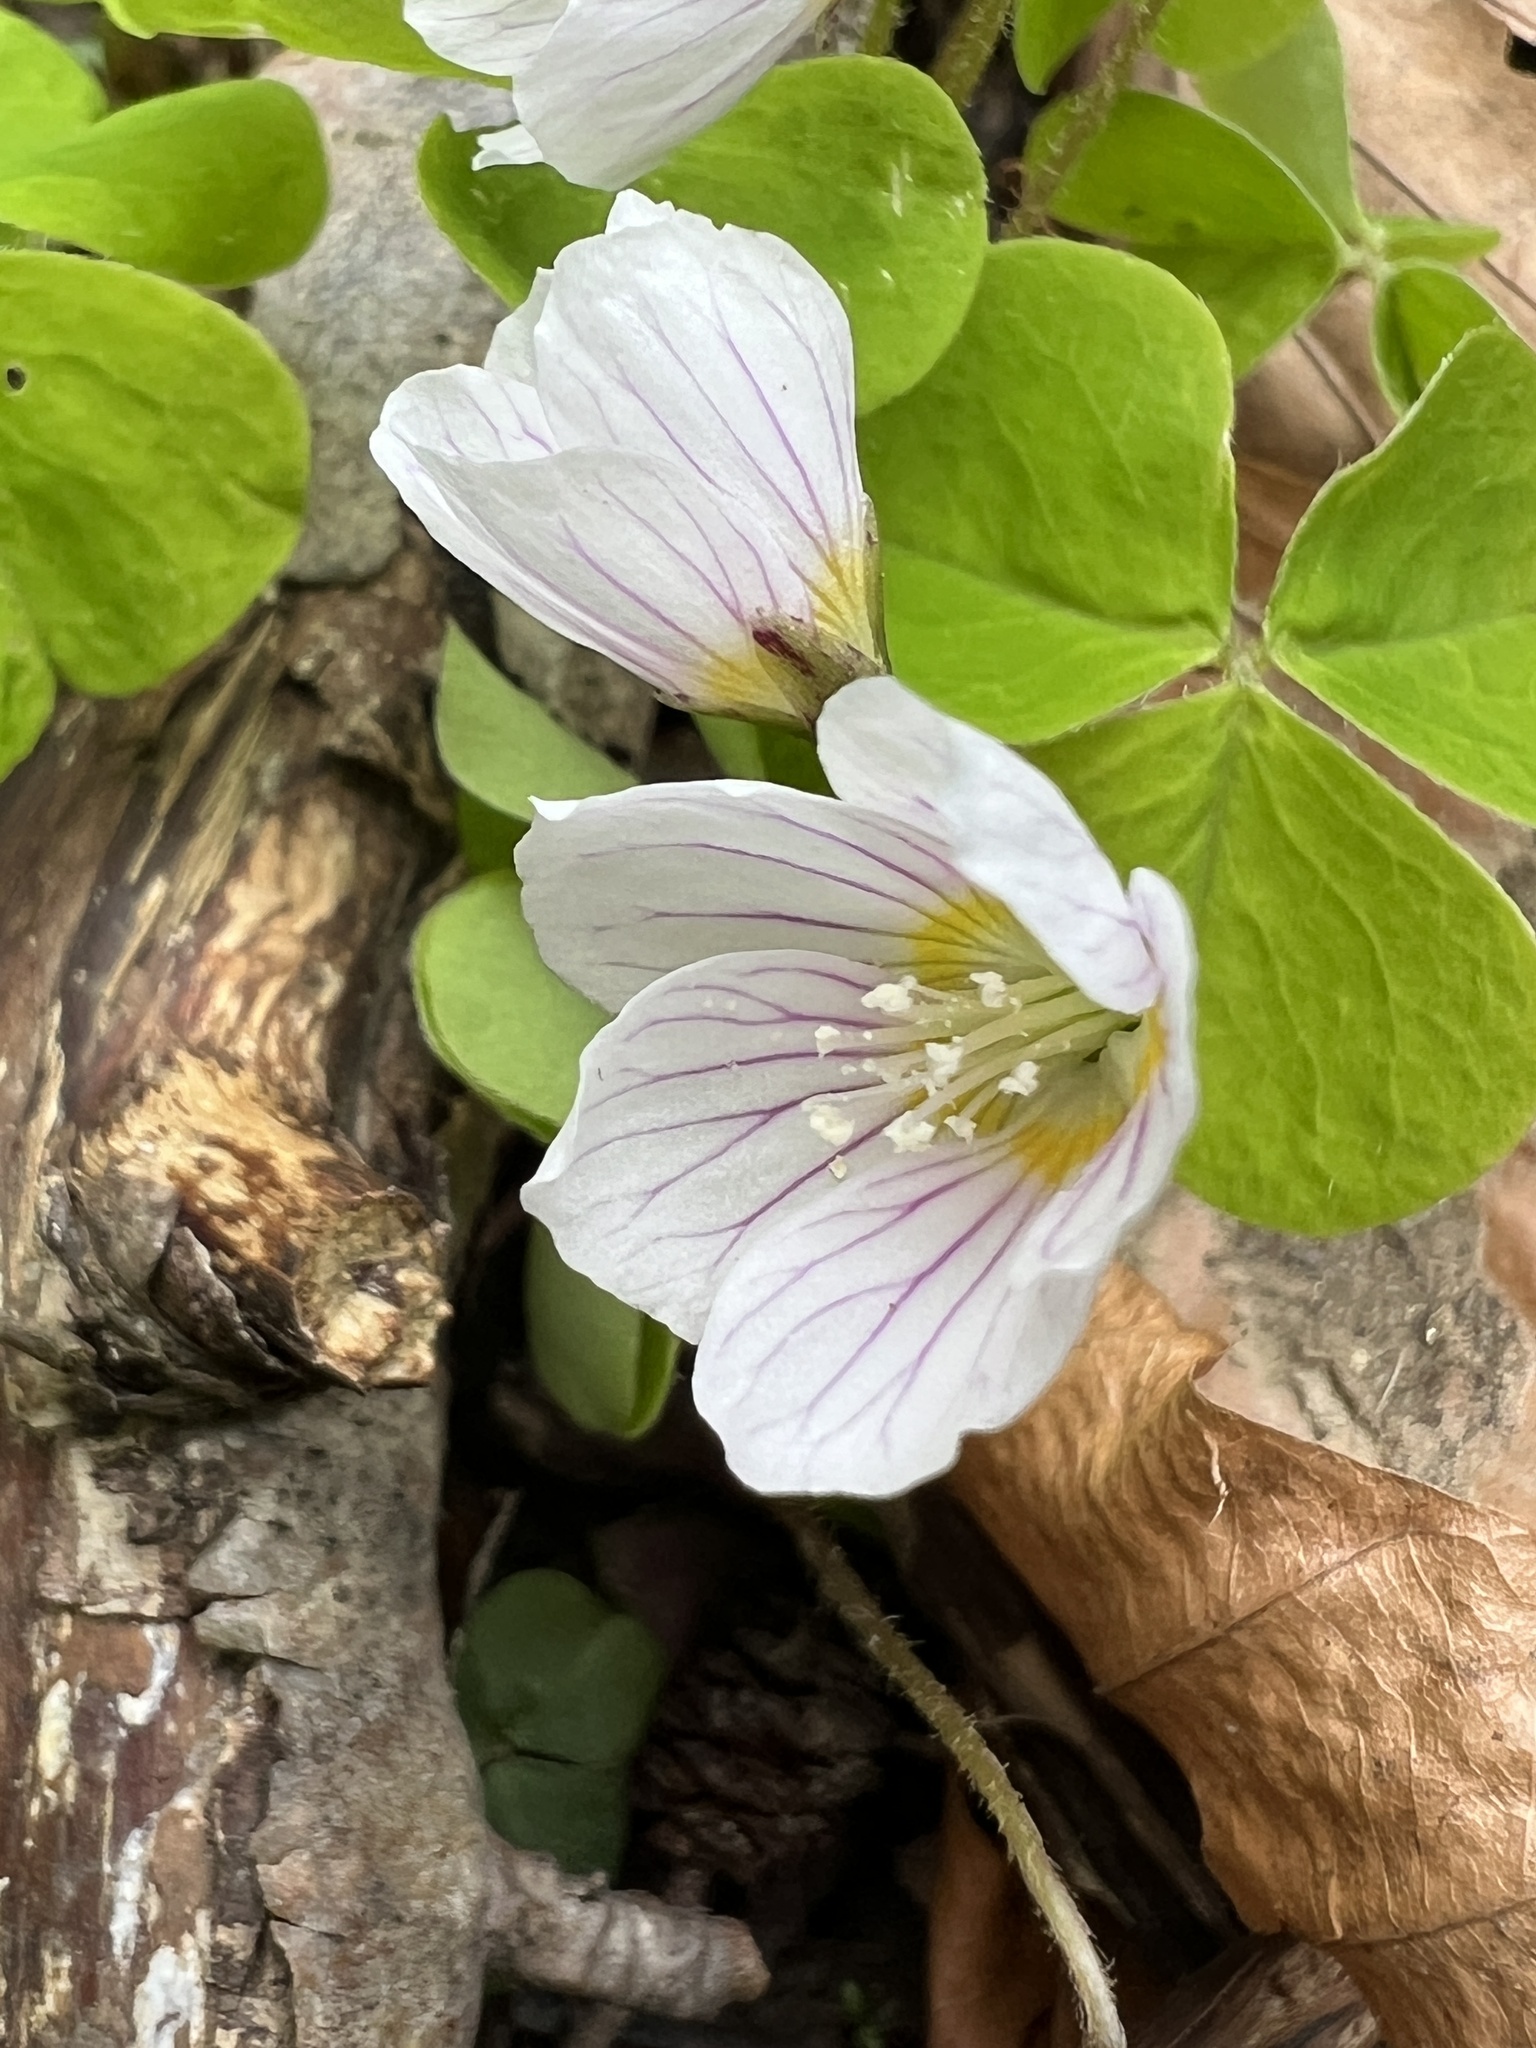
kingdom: Plantae
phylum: Tracheophyta
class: Magnoliopsida
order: Oxalidales
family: Oxalidaceae
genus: Oxalis
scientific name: Oxalis acetosella
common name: Wood-sorrel
